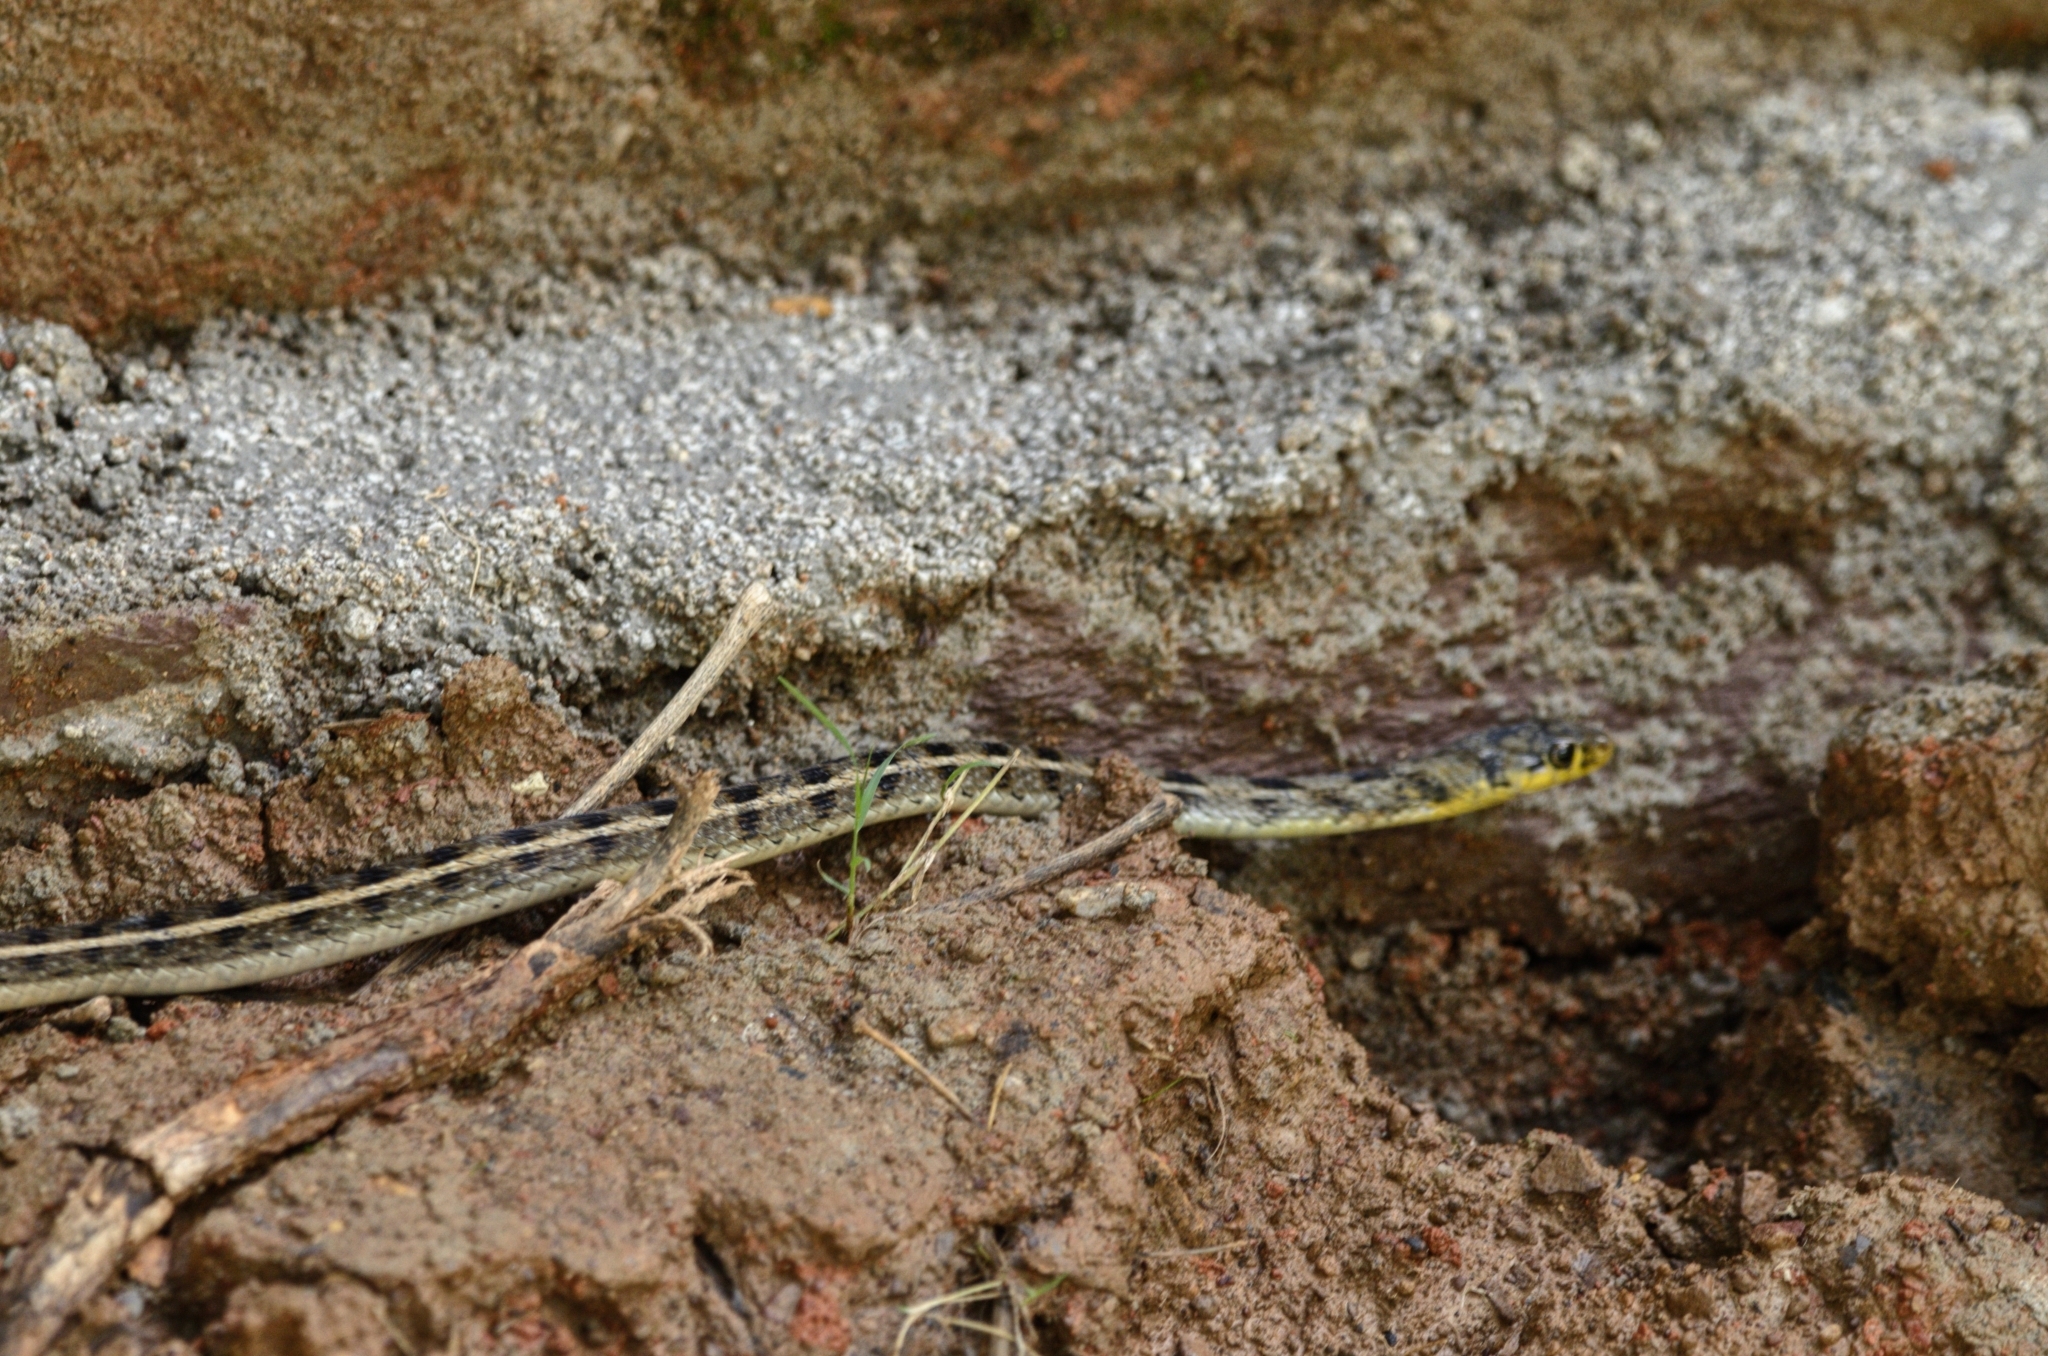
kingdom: Animalia
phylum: Chordata
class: Squamata
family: Colubridae
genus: Amphiesma
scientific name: Amphiesma stolatum
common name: Buff striped keelback
